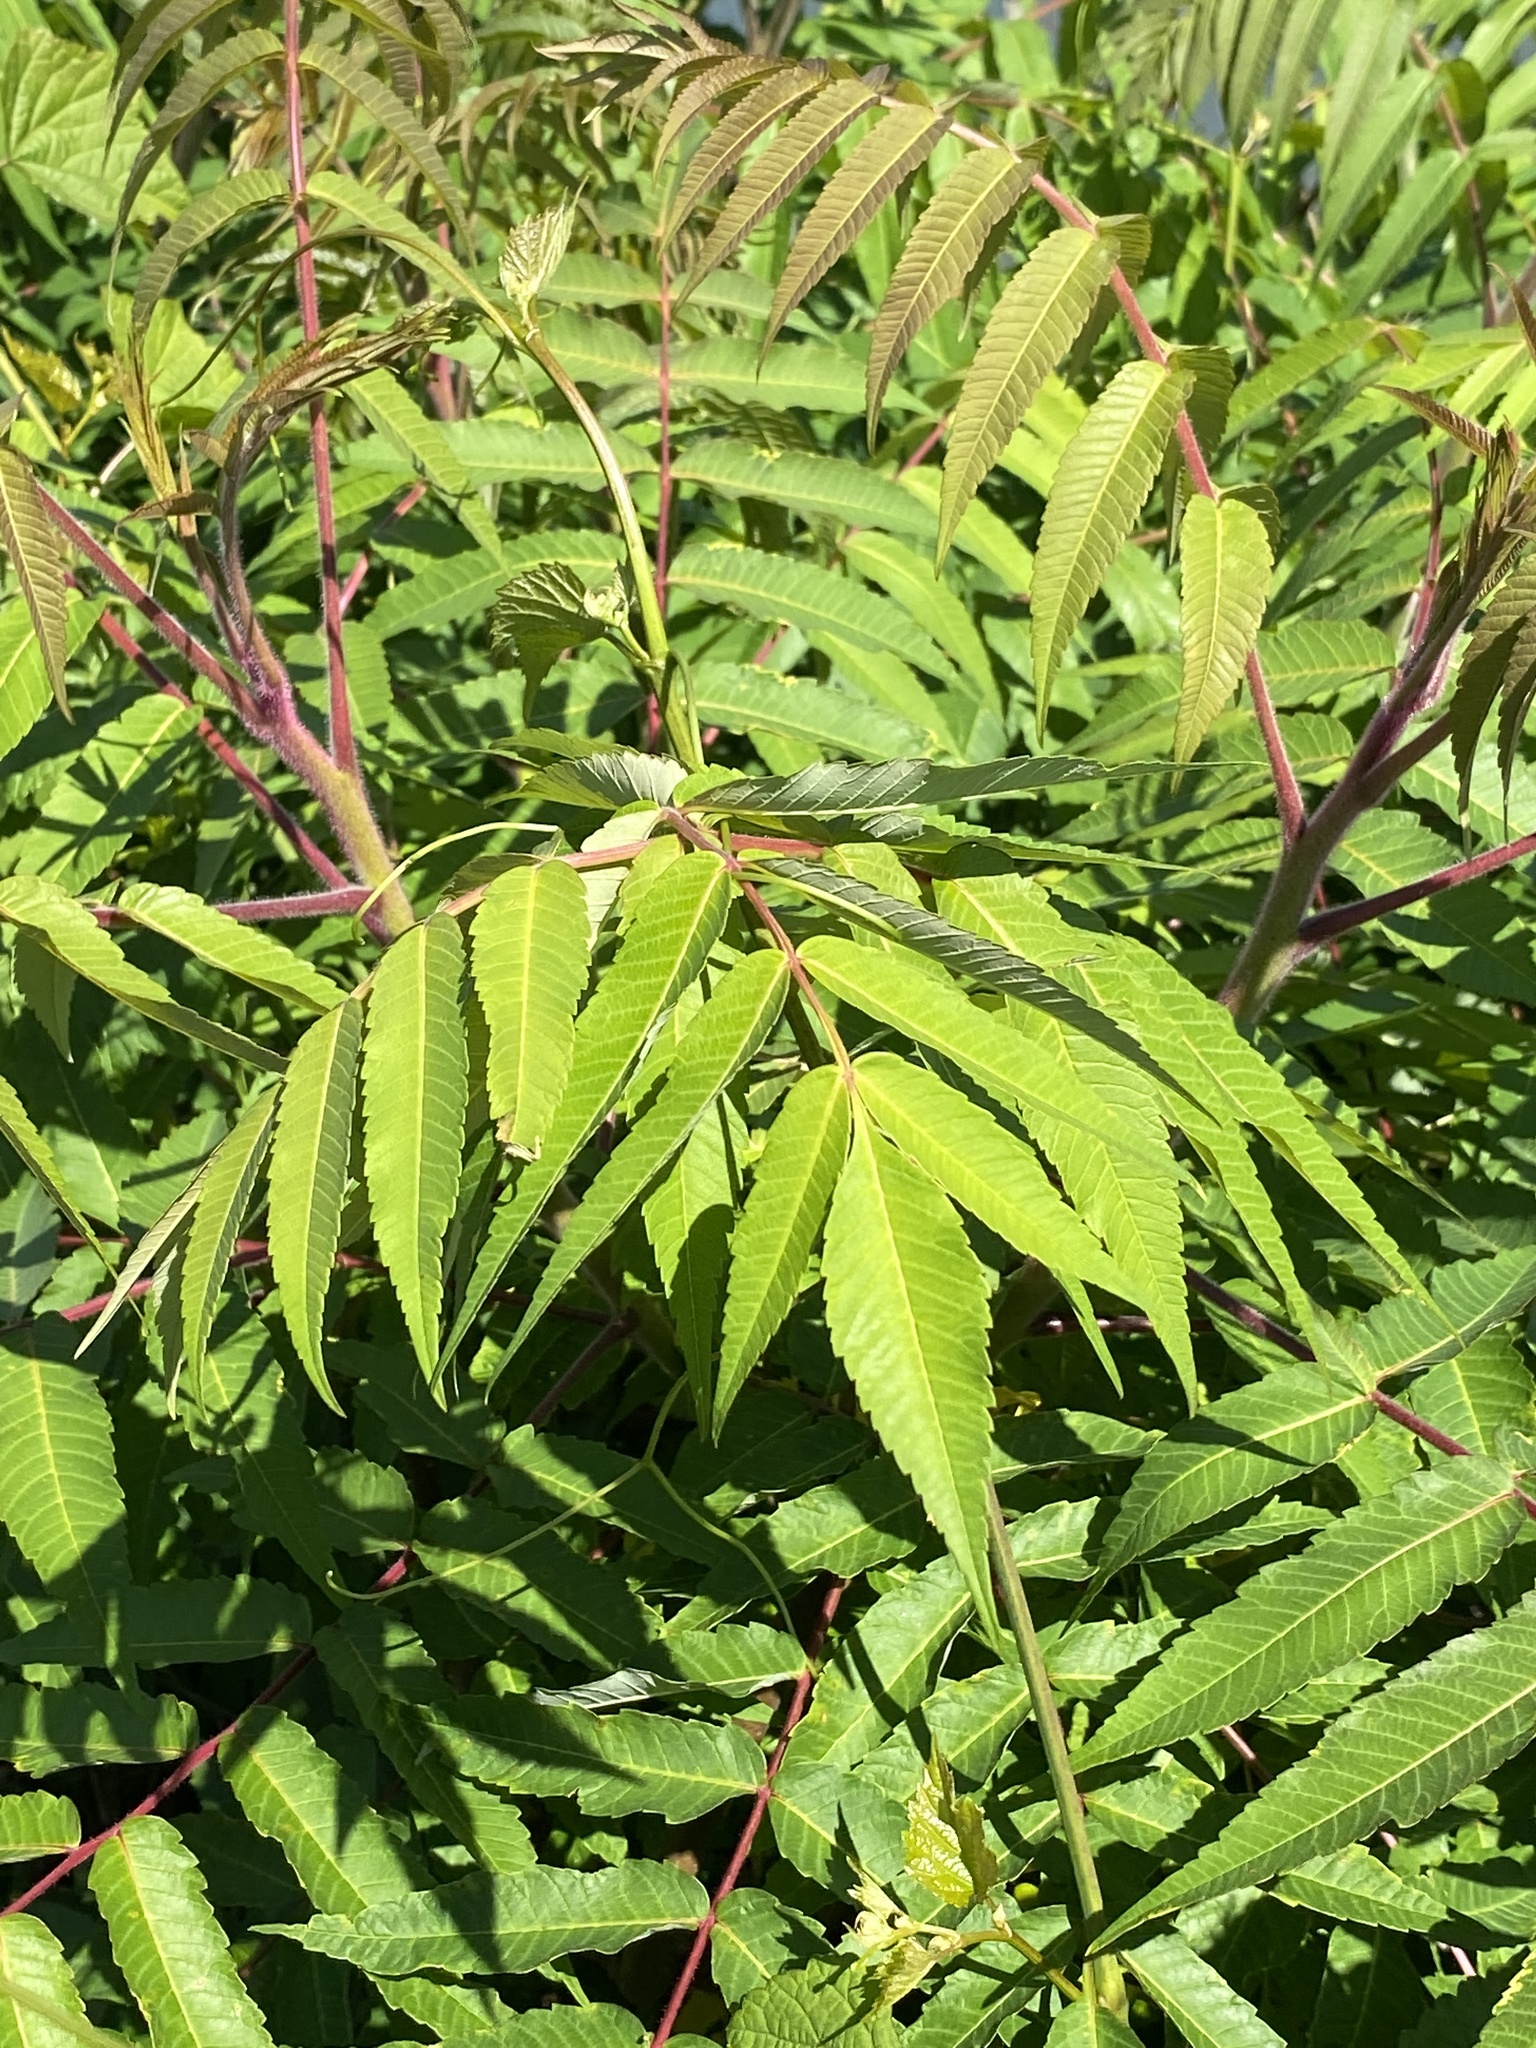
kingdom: Plantae
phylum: Tracheophyta
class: Magnoliopsida
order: Sapindales
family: Anacardiaceae
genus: Rhus
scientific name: Rhus typhina
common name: Staghorn sumac
